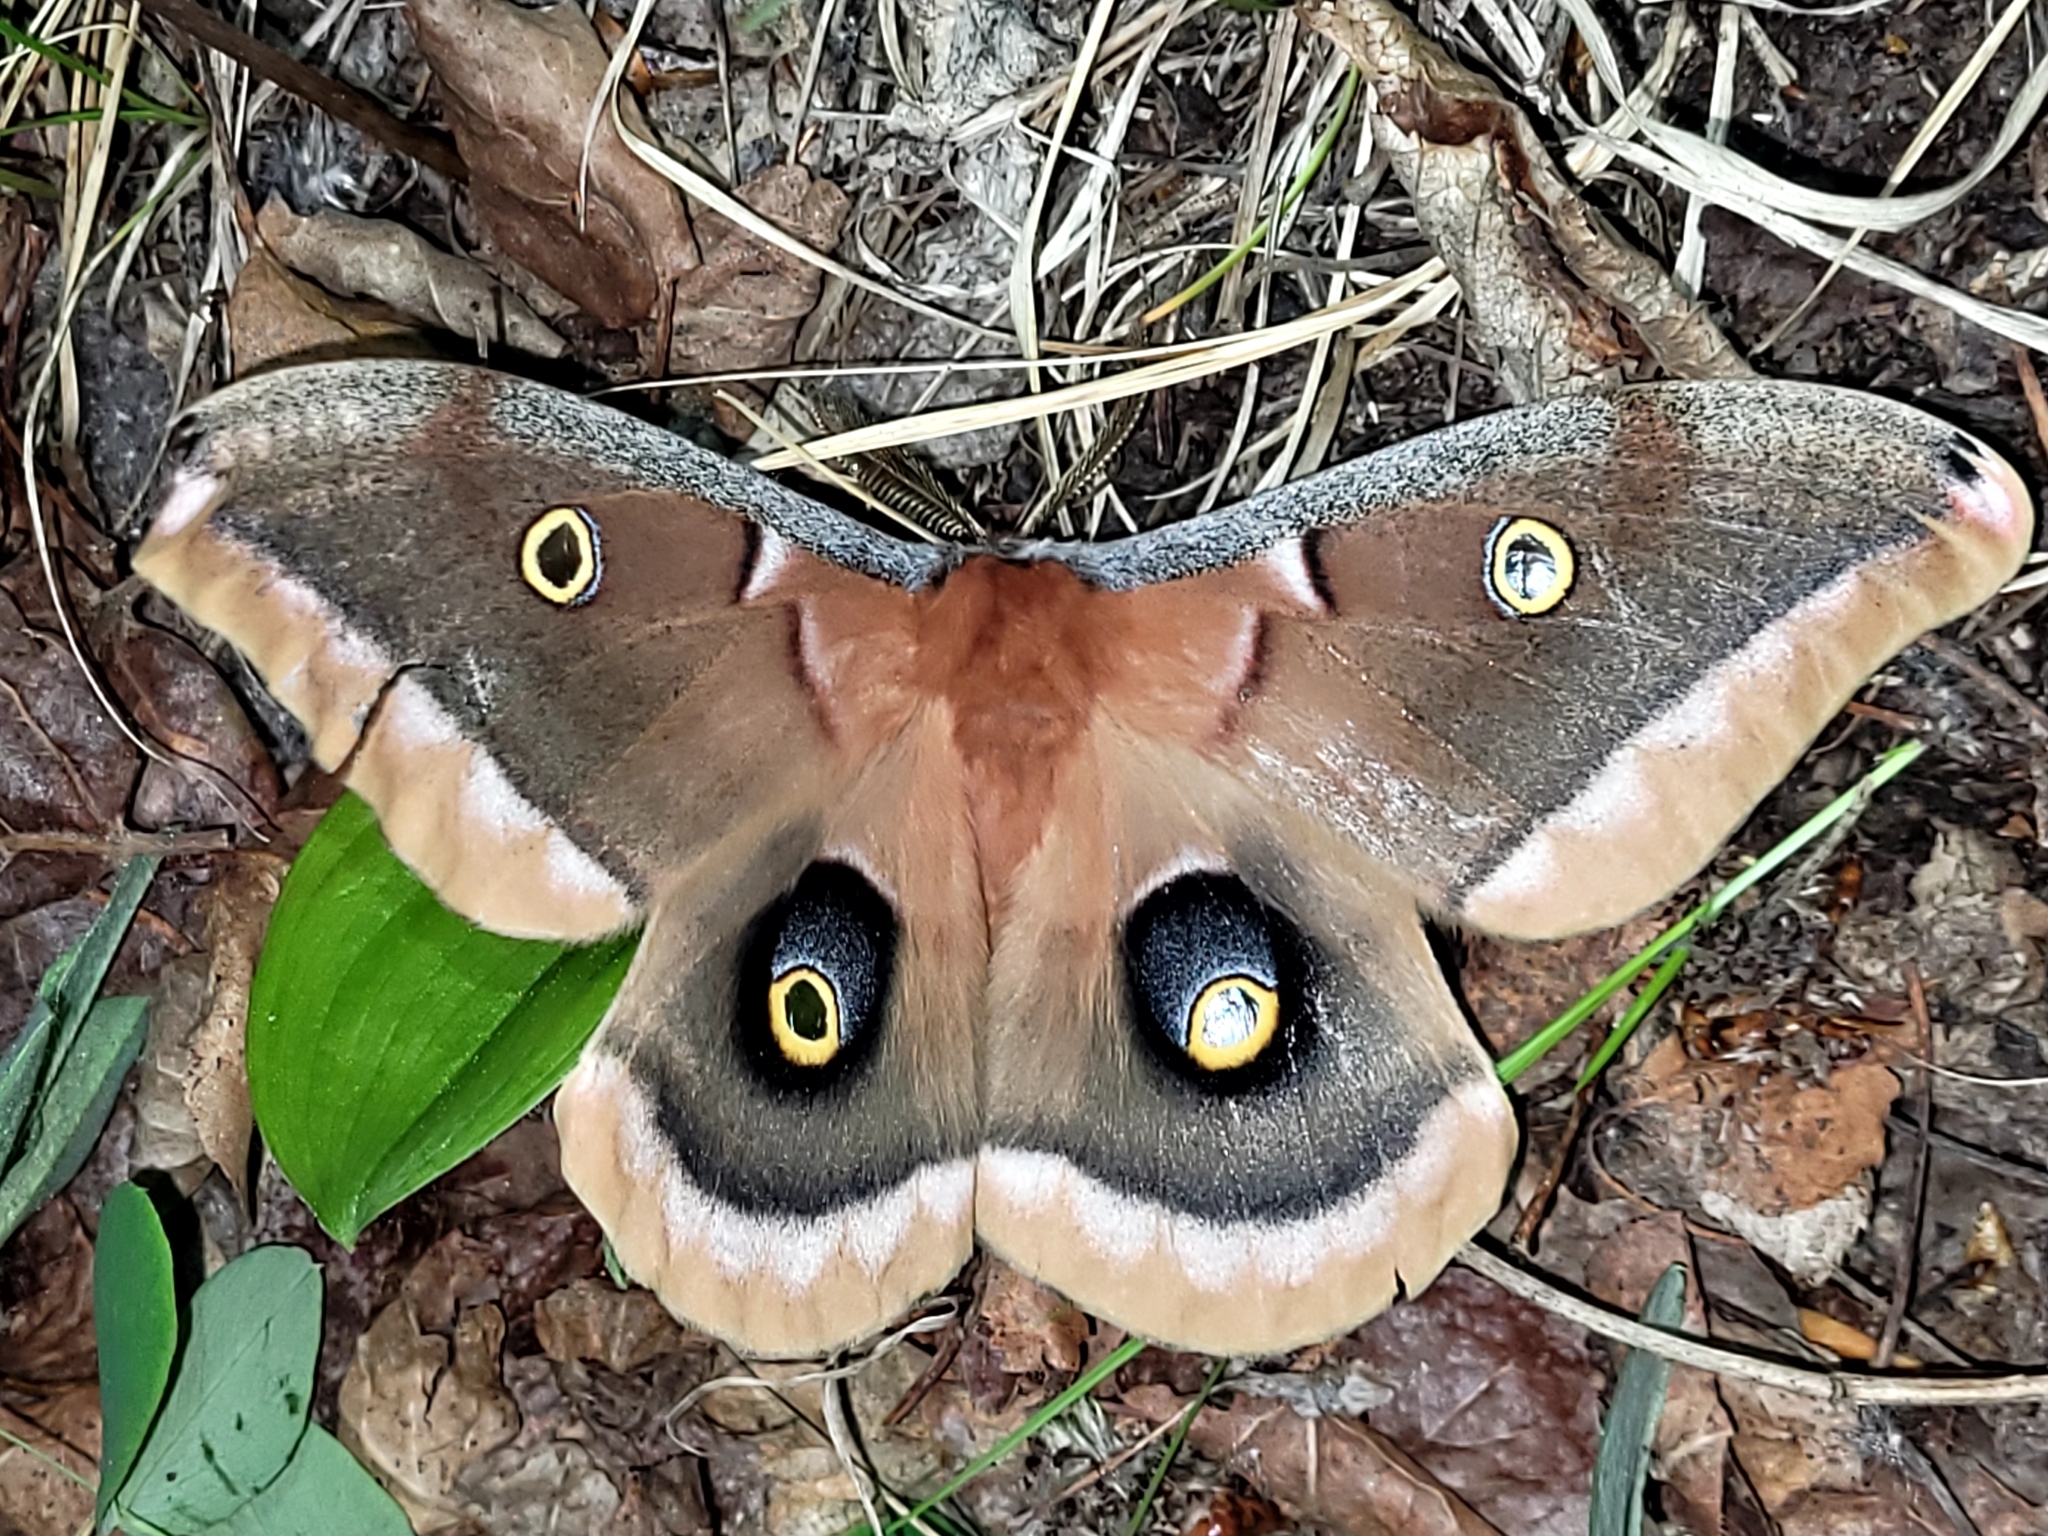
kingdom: Animalia
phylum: Arthropoda
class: Insecta
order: Lepidoptera
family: Saturniidae
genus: Antheraea
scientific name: Antheraea polyphemus
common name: Polyphemus moth
